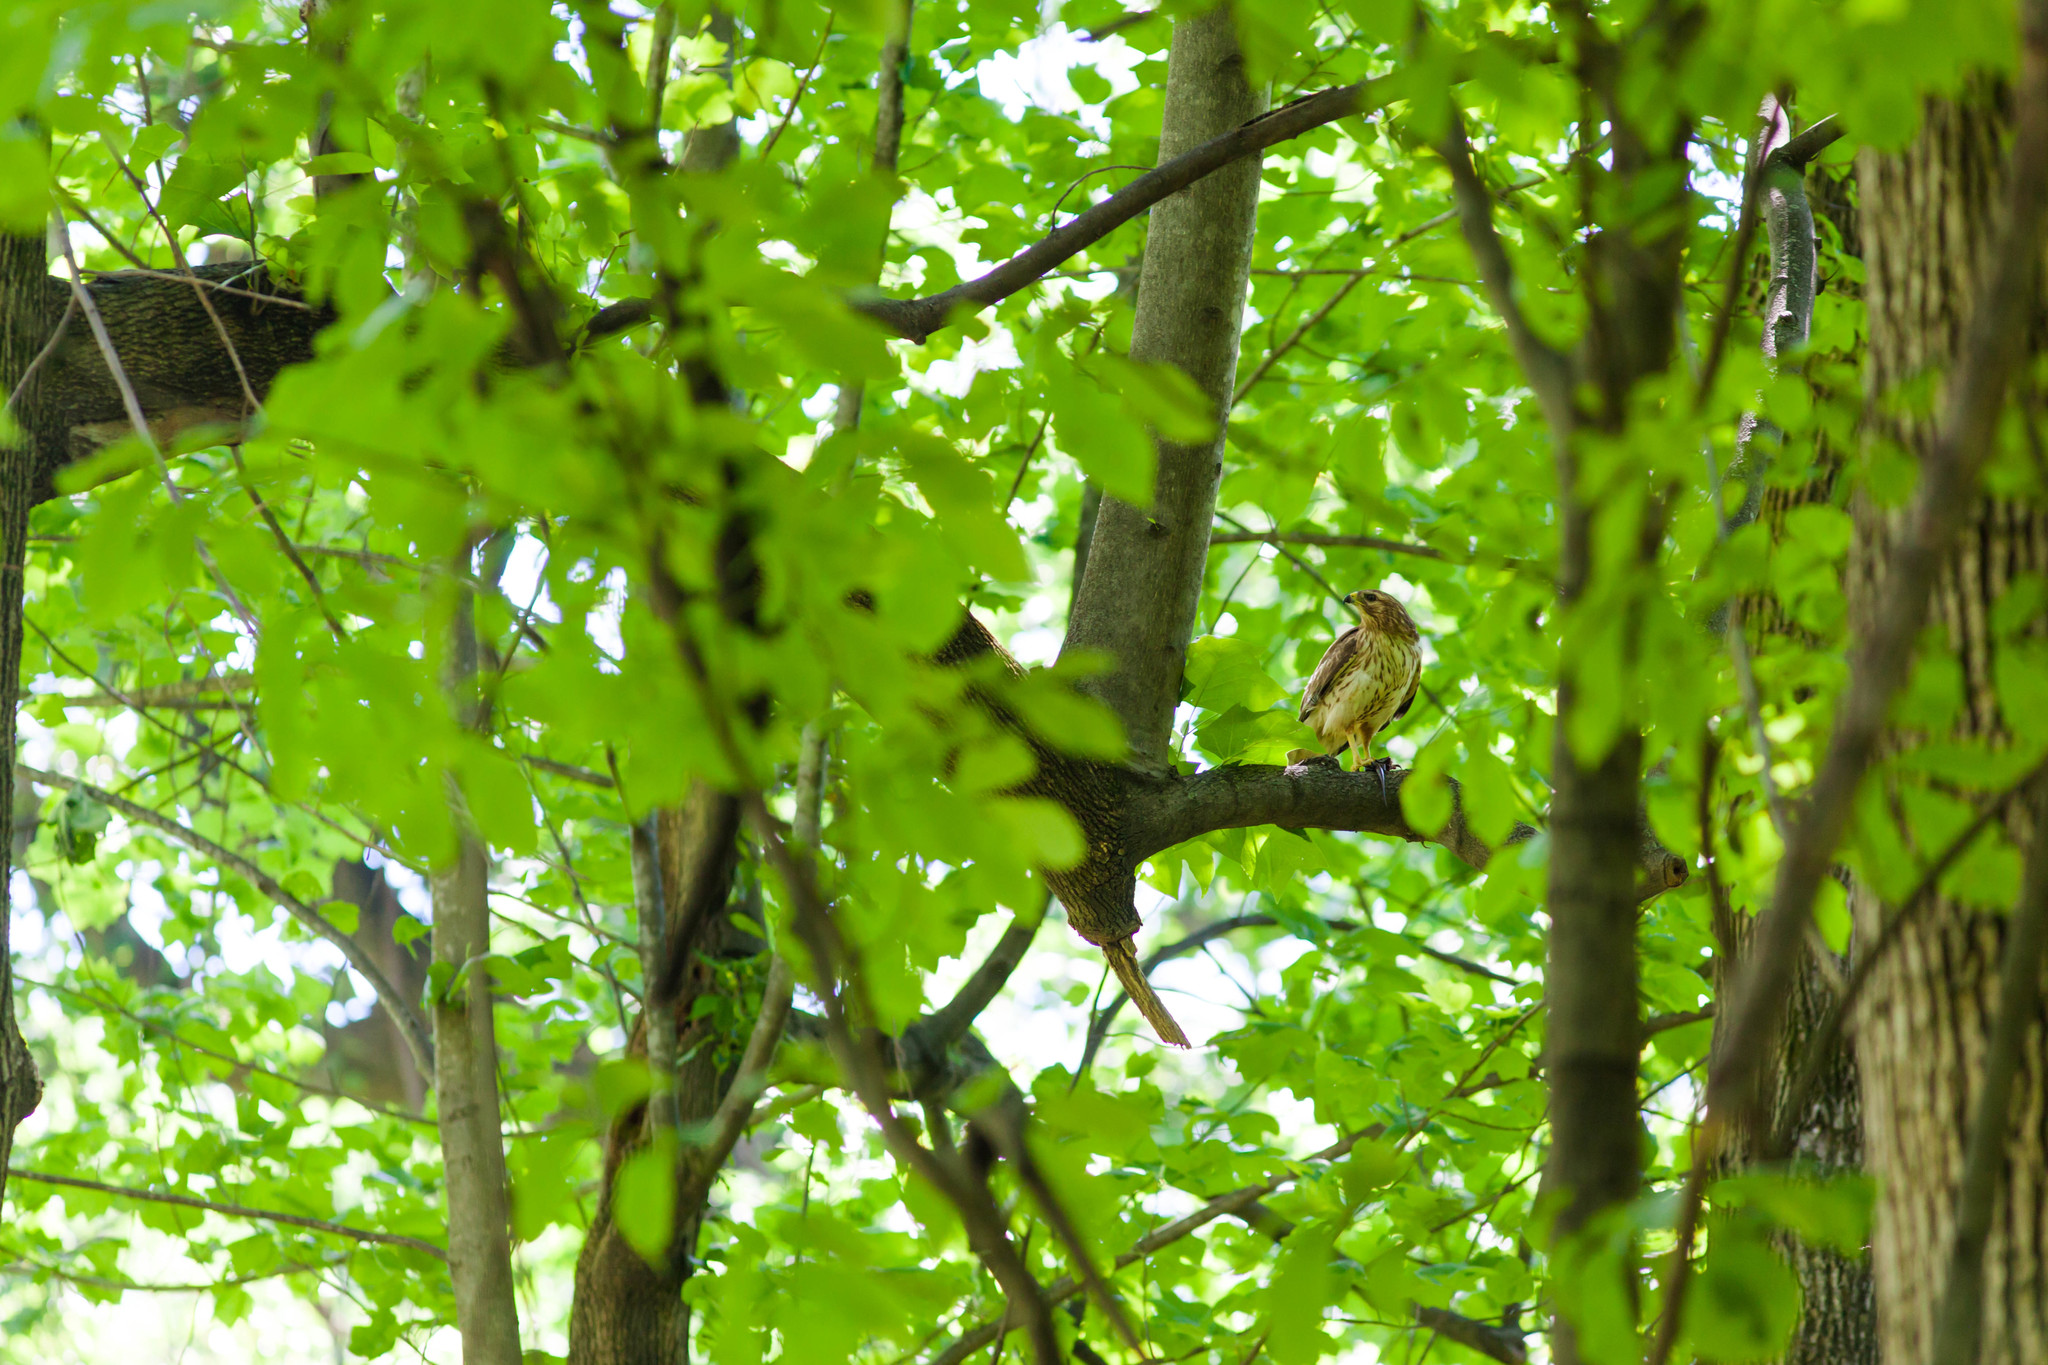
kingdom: Animalia
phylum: Chordata
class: Aves
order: Accipitriformes
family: Accipitridae
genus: Buteo
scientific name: Buteo lineatus
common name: Red-shouldered hawk
